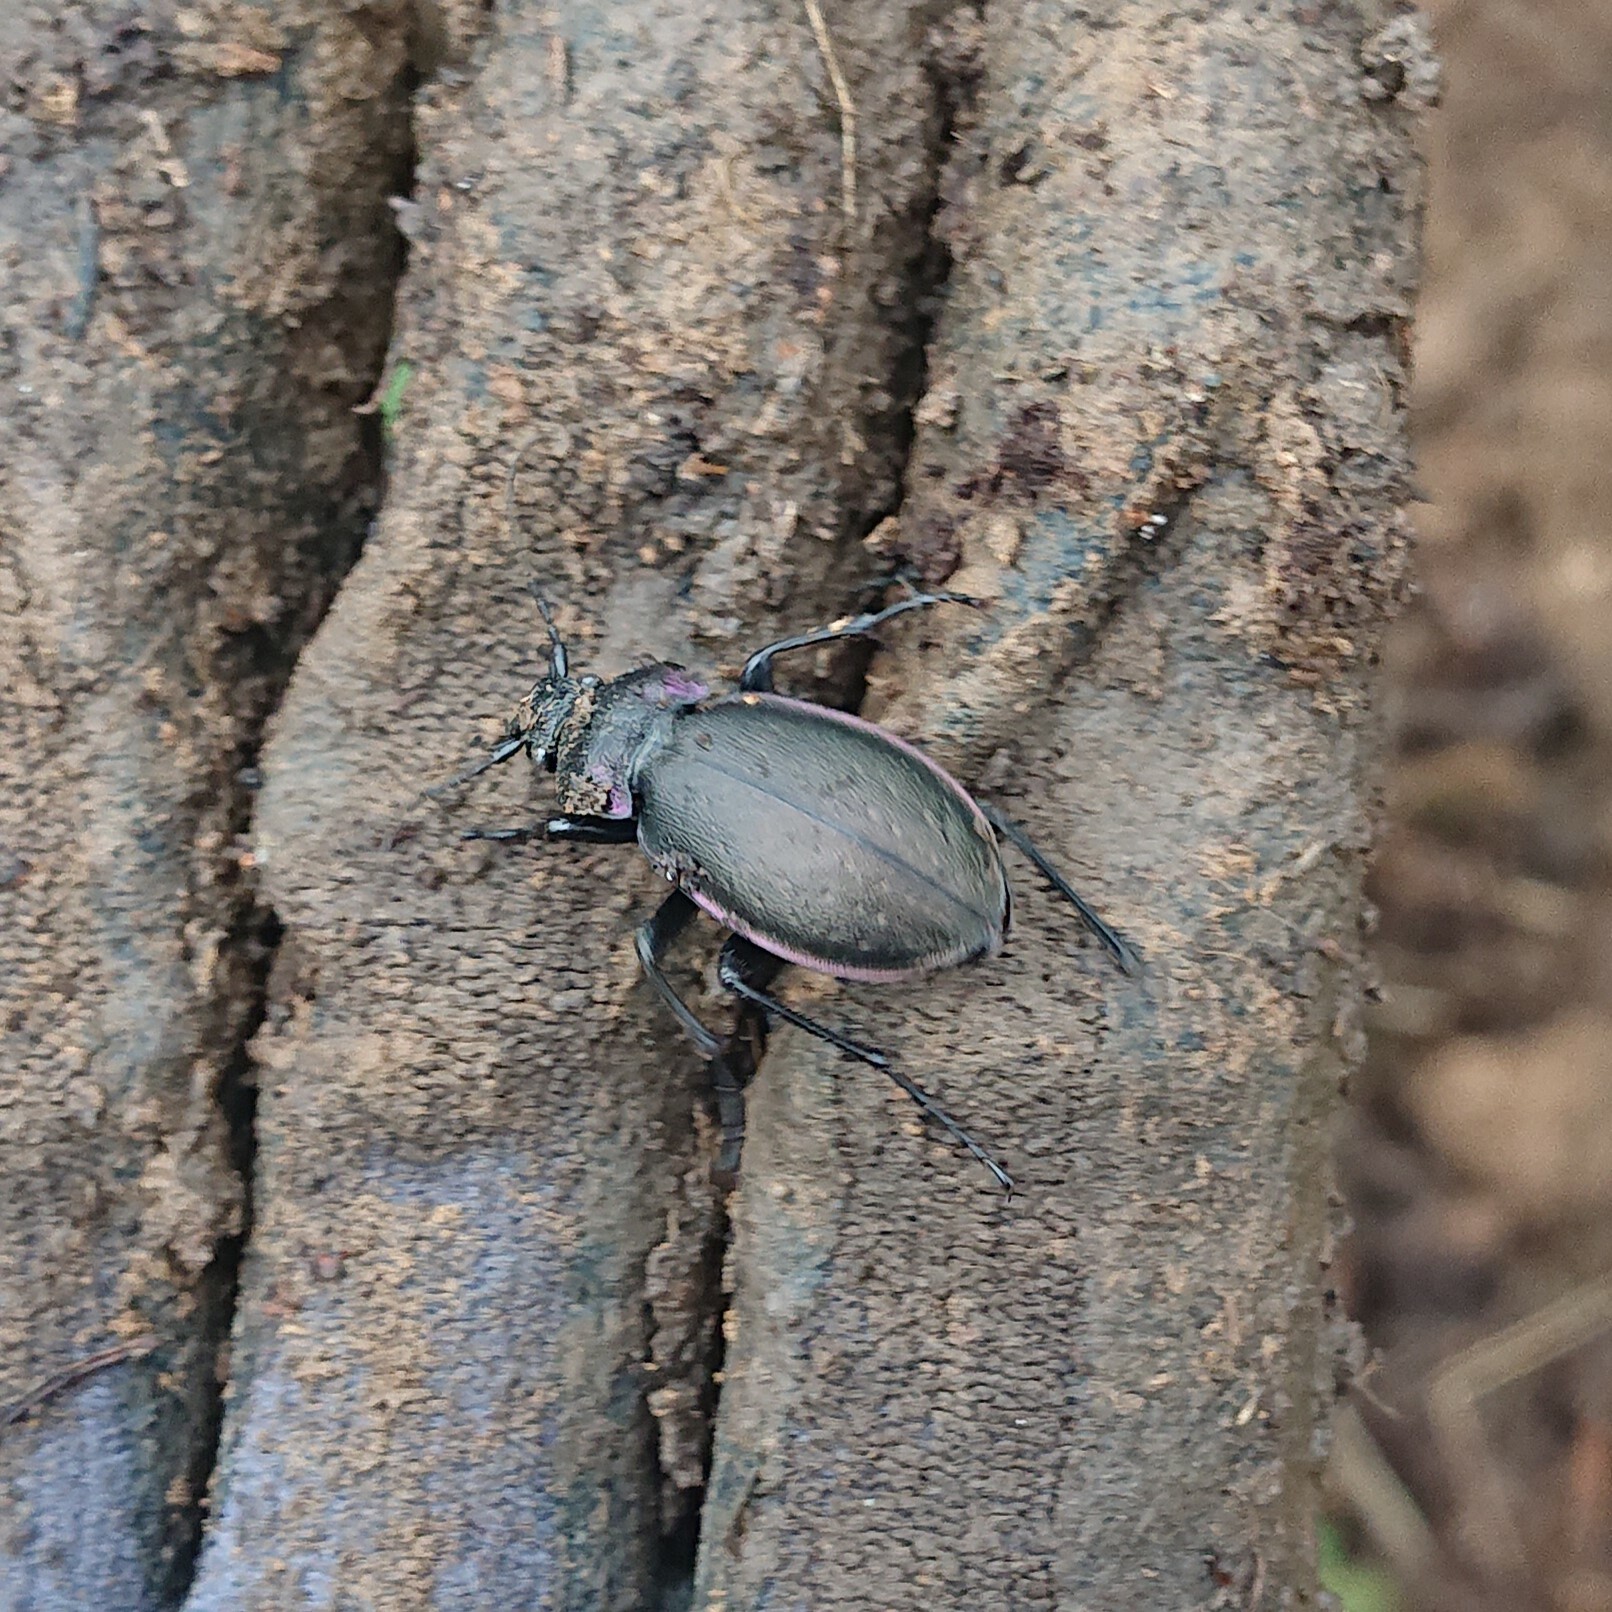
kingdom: Animalia
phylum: Arthropoda
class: Insecta
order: Coleoptera
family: Carabidae
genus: Carabus
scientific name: Carabus nemoralis
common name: European ground beetle
